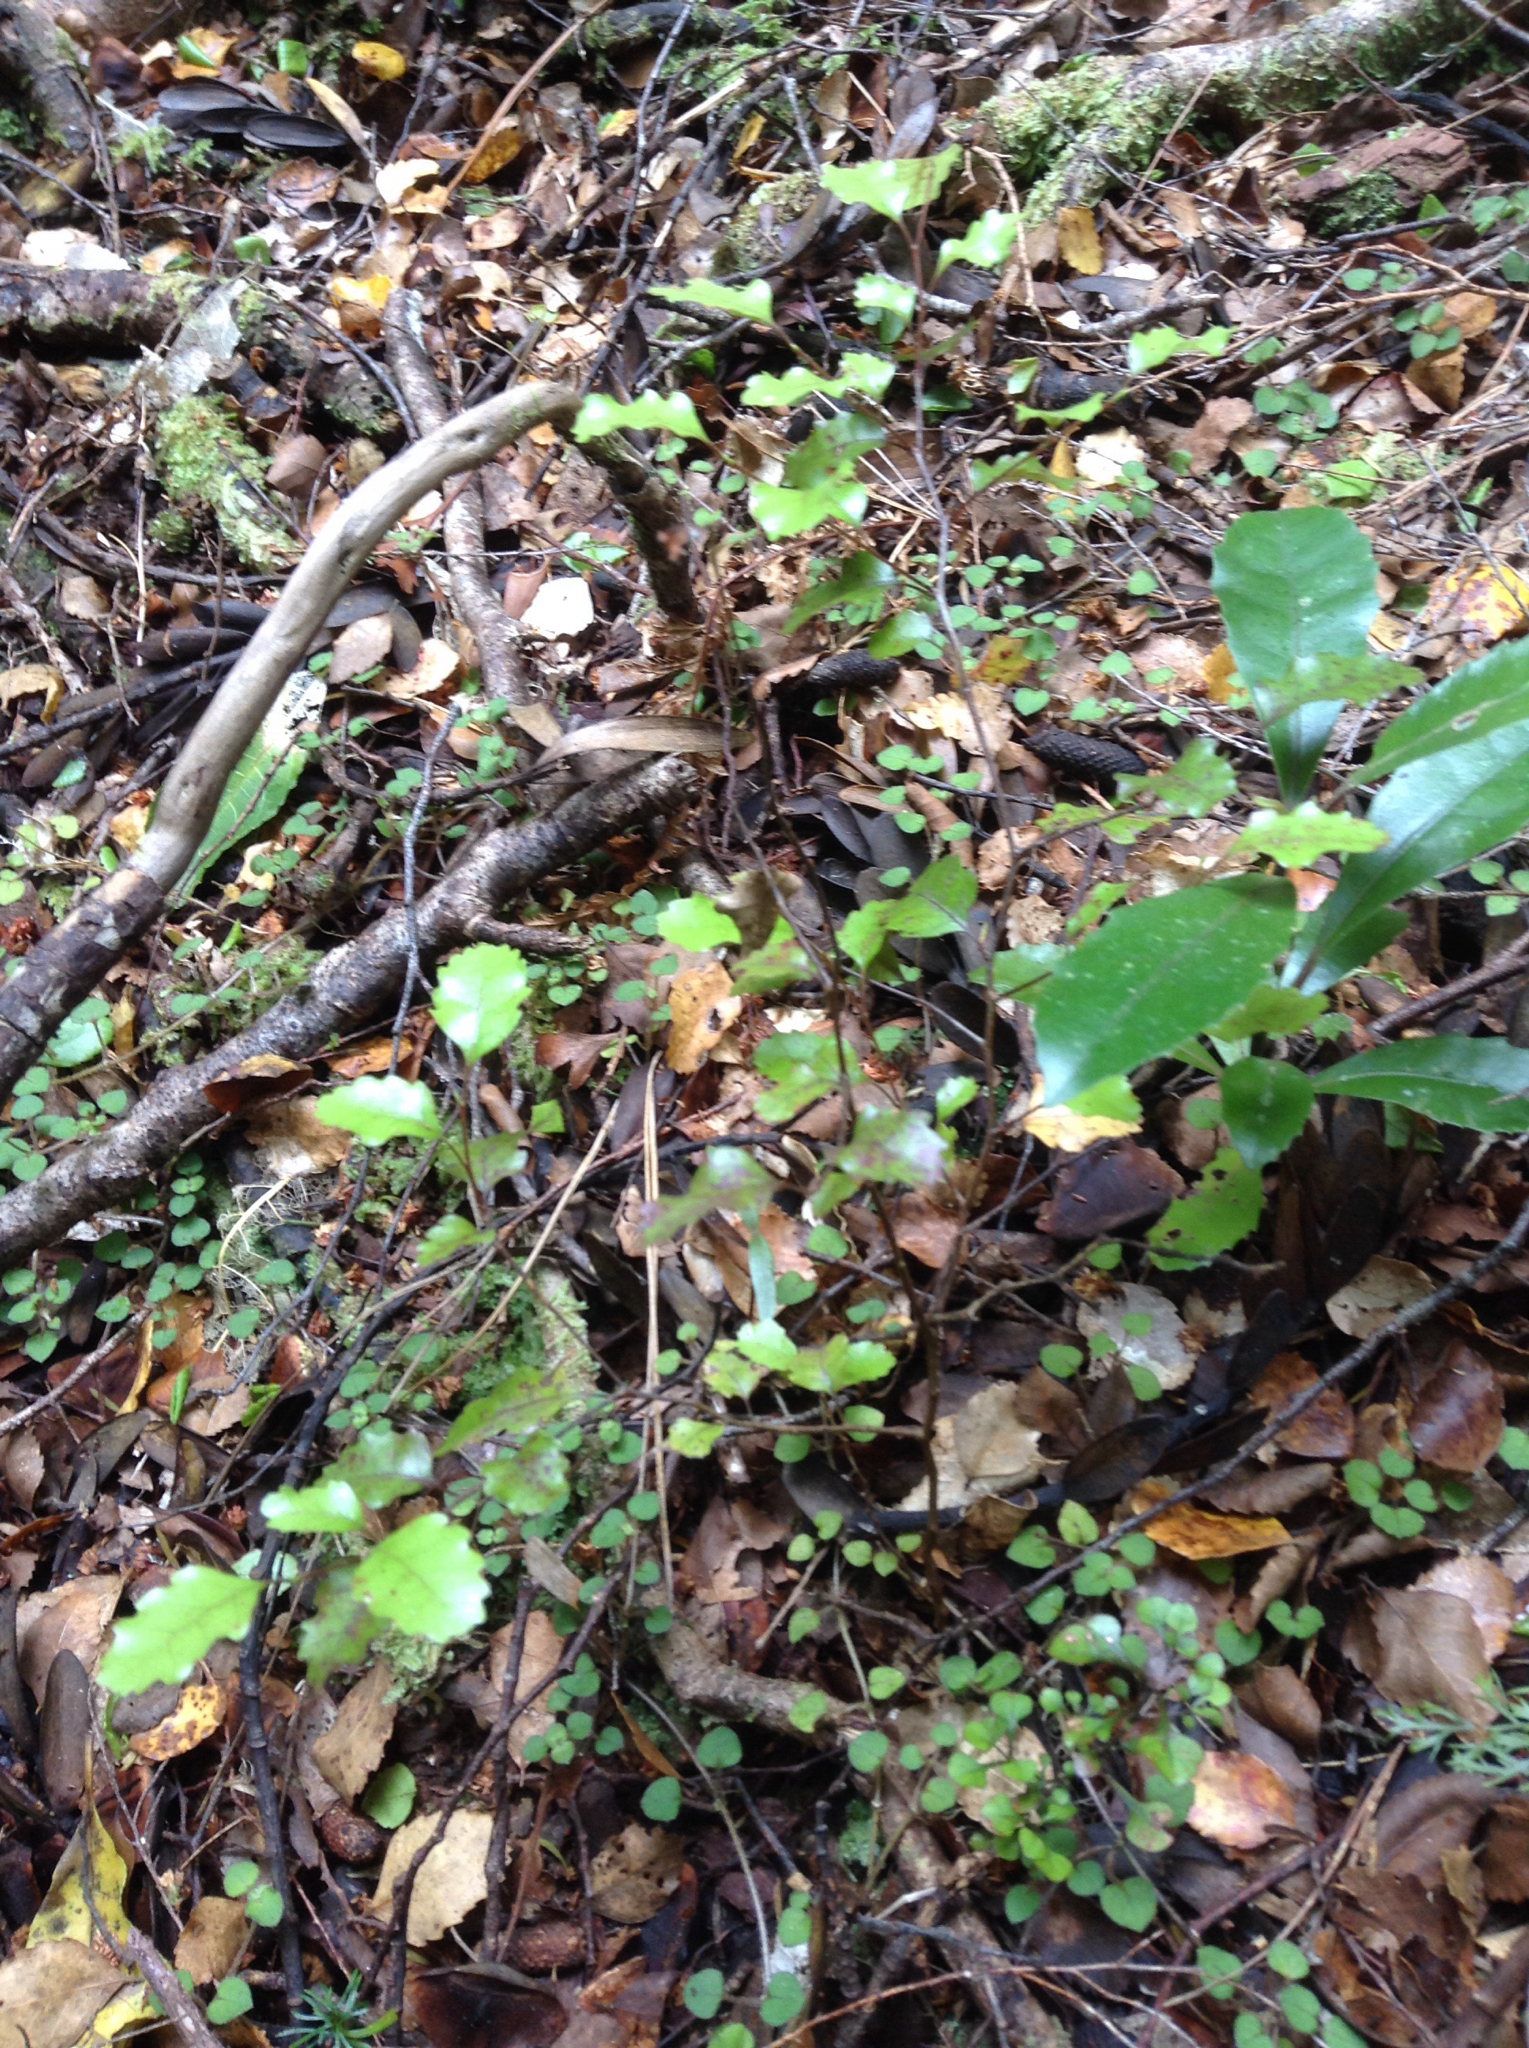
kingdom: Plantae
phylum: Tracheophyta
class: Magnoliopsida
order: Fagales
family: Nothofagaceae
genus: Nothofagus
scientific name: Nothofagus truncata
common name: Hard beech
